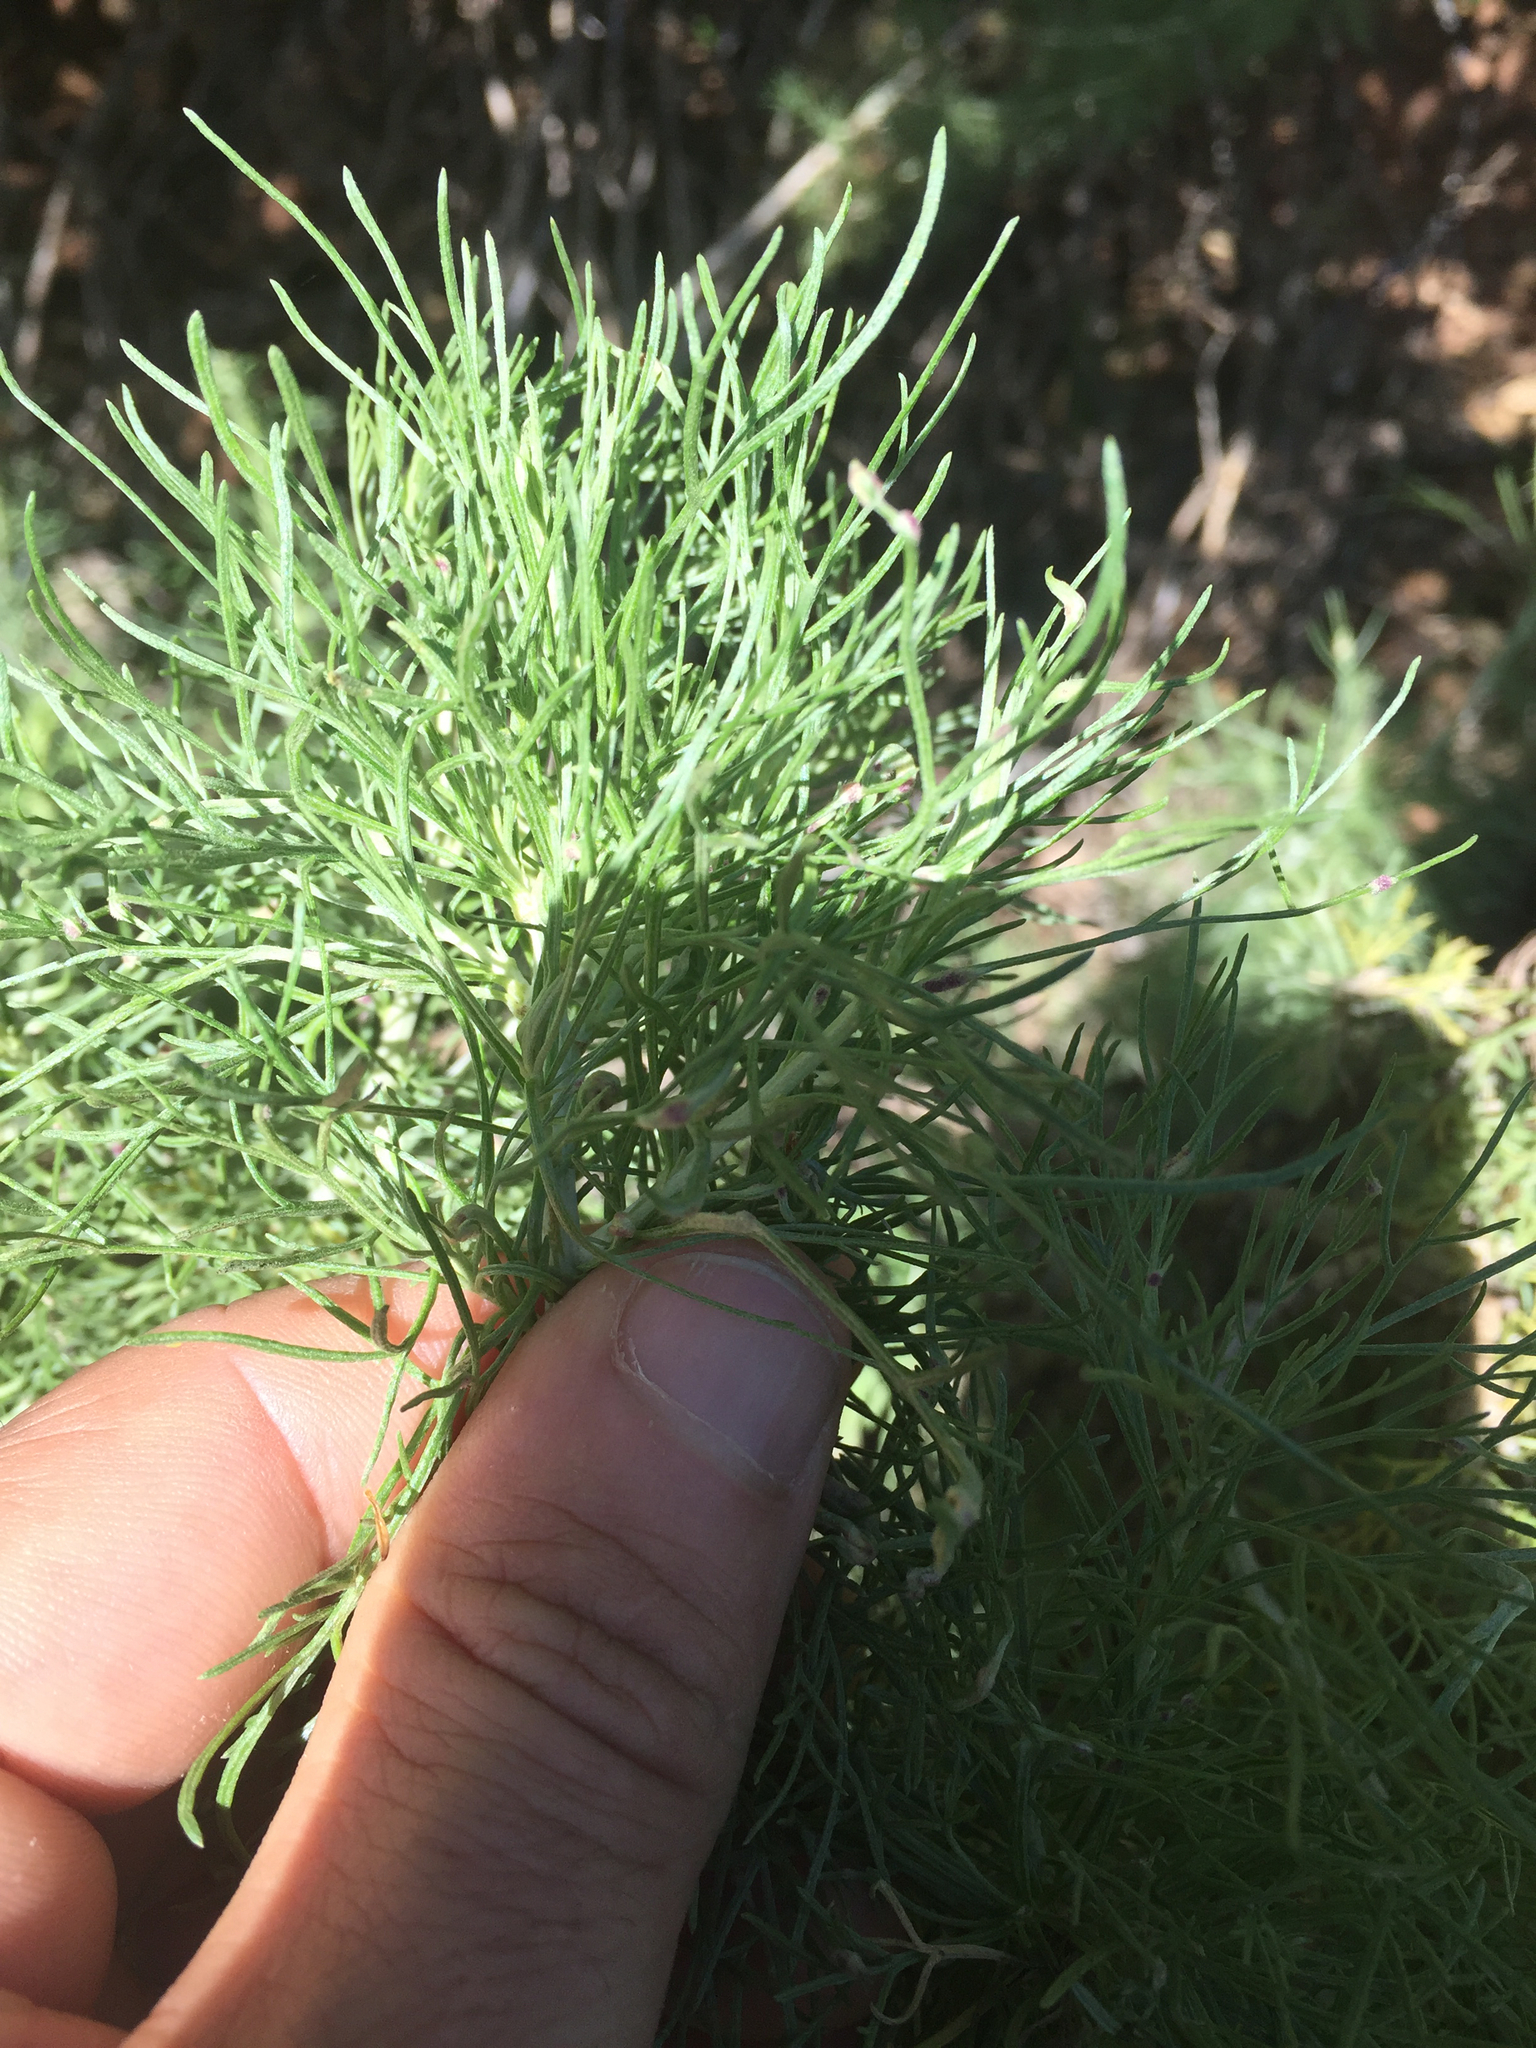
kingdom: Plantae
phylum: Tracheophyta
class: Magnoliopsida
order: Asterales
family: Asteraceae
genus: Artemisia
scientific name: Artemisia californica
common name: California sagebrush
